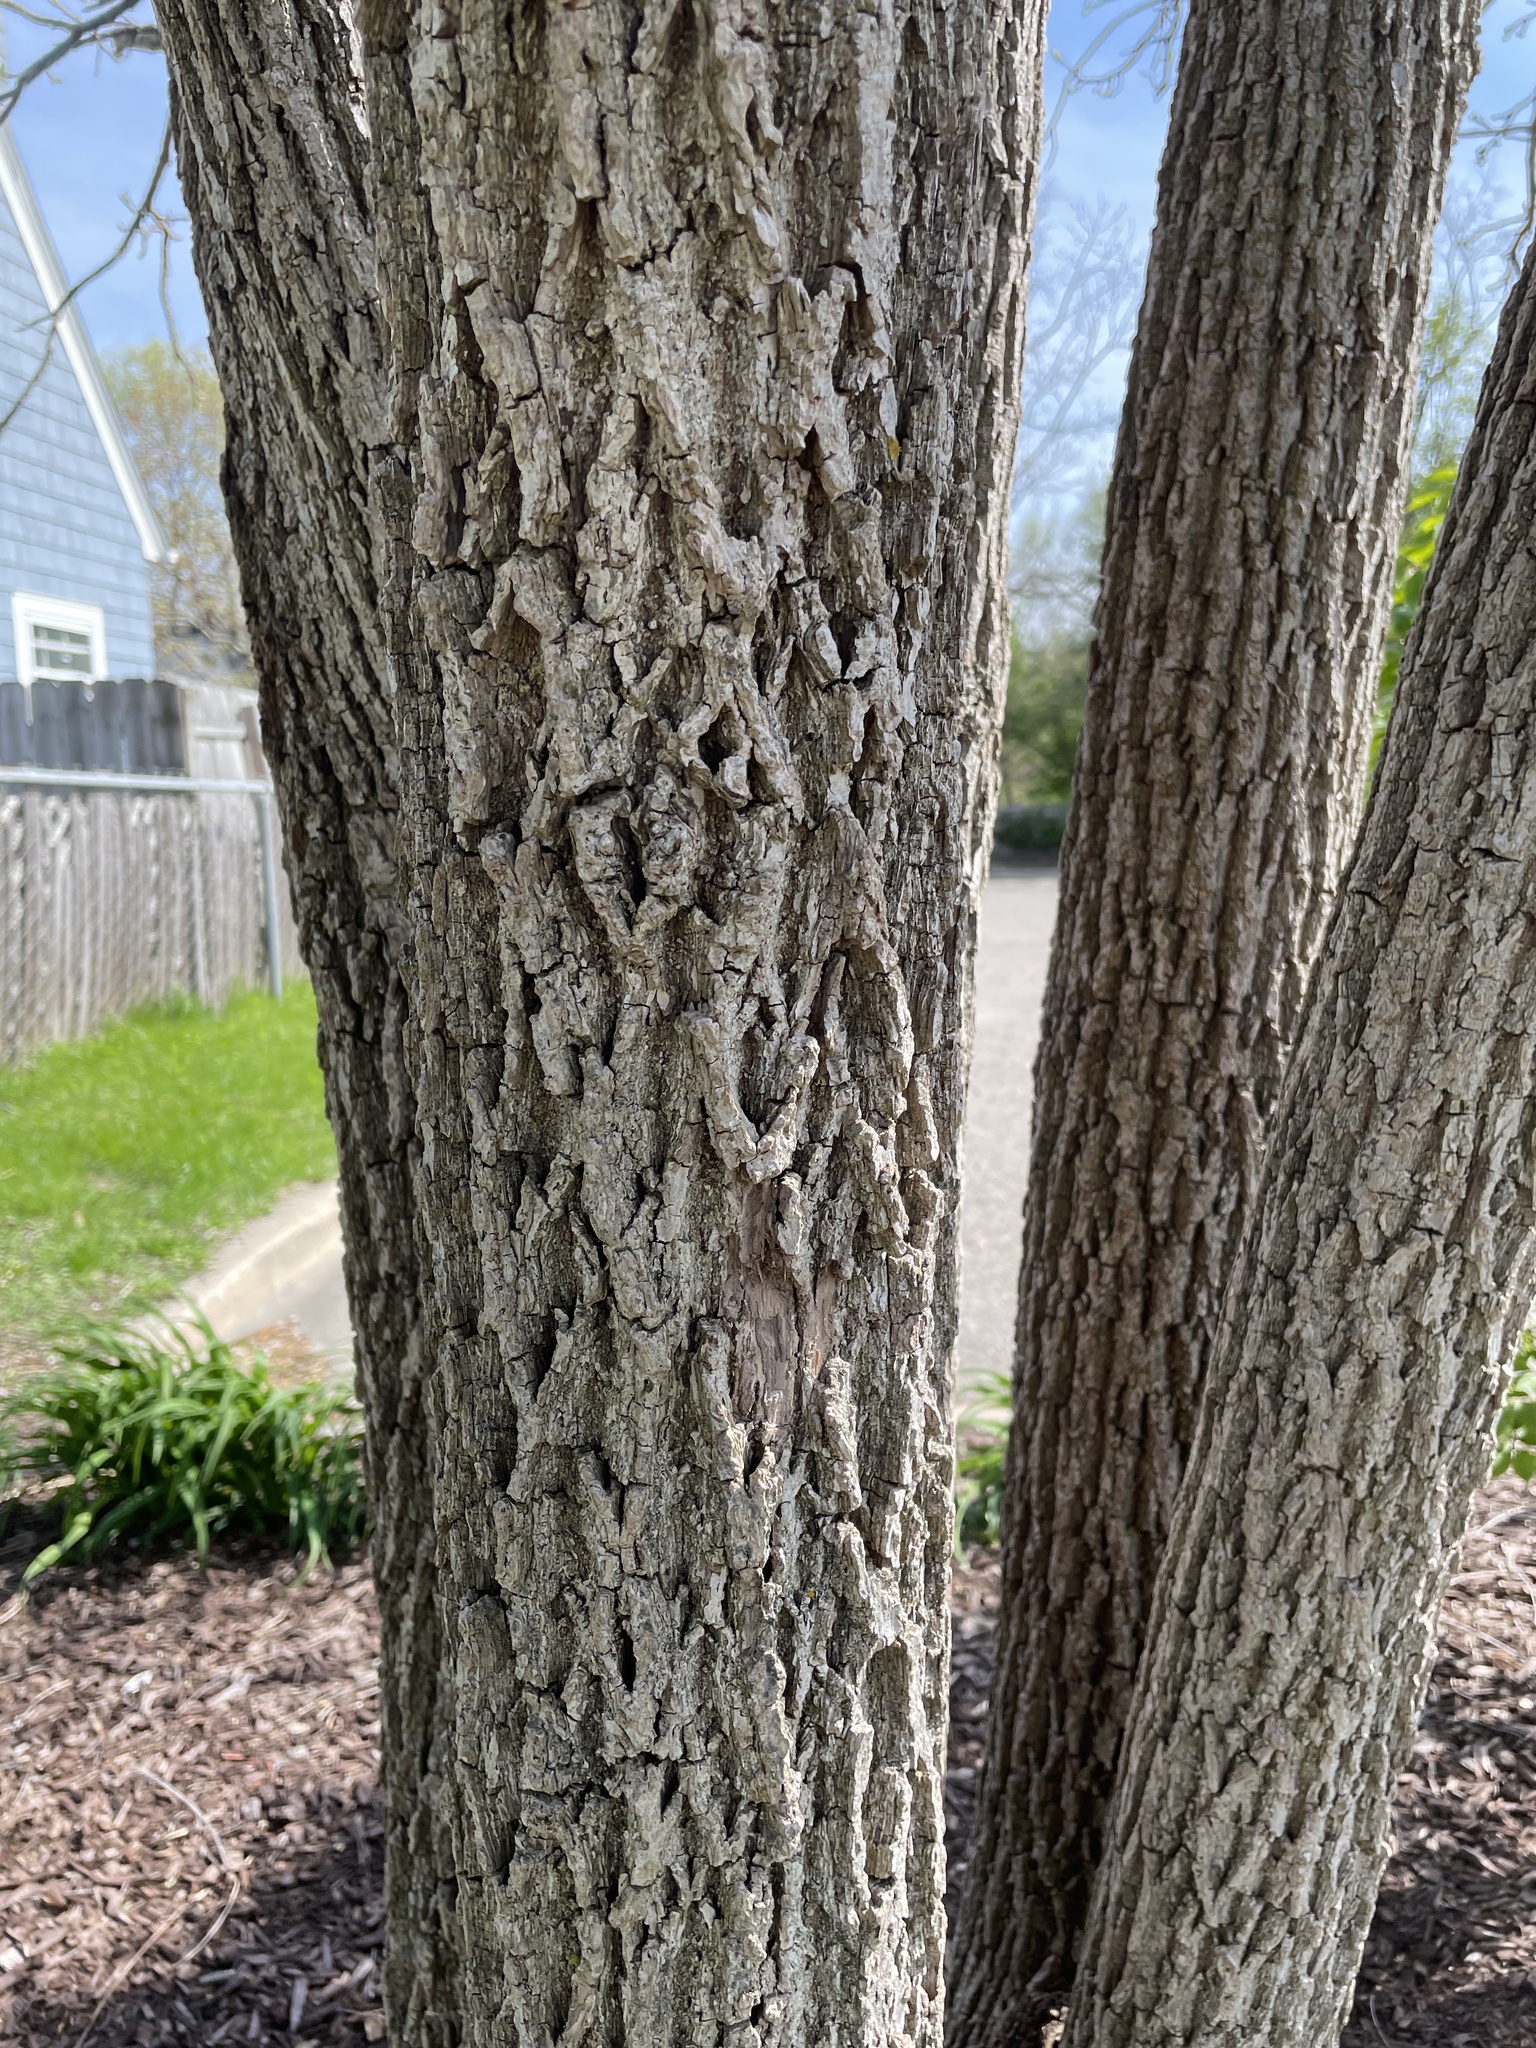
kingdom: Plantae
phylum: Tracheophyta
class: Magnoliopsida
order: Rosales
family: Cannabaceae
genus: Celtis
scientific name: Celtis occidentalis
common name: Common hackberry
